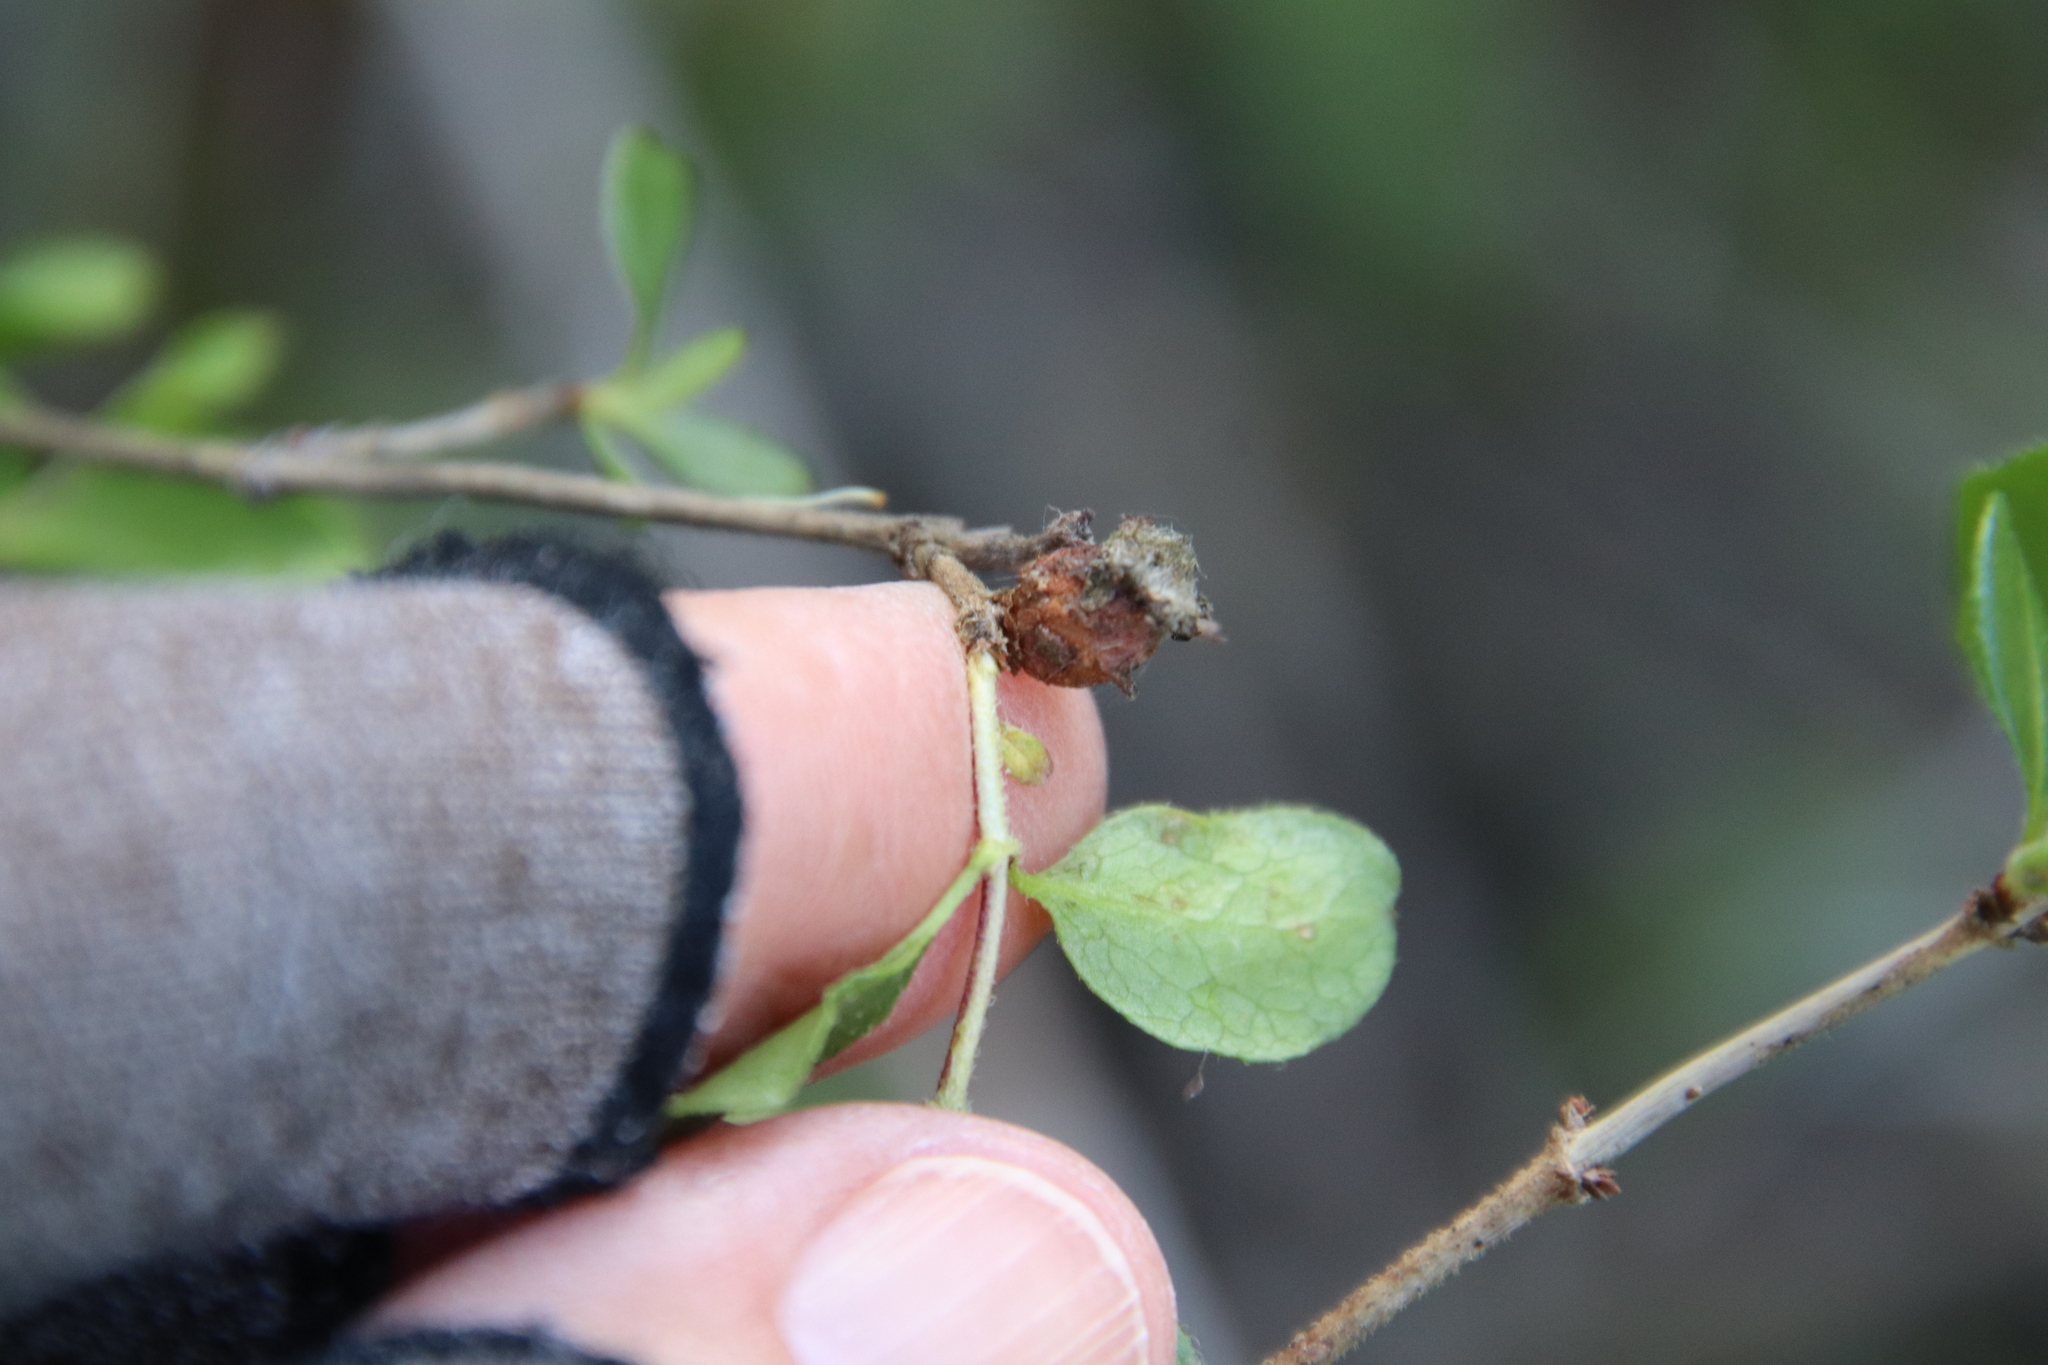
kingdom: Animalia
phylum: Arthropoda
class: Insecta
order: Diptera
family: Cecidomyiidae
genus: Lonicerae
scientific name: Lonicerae
